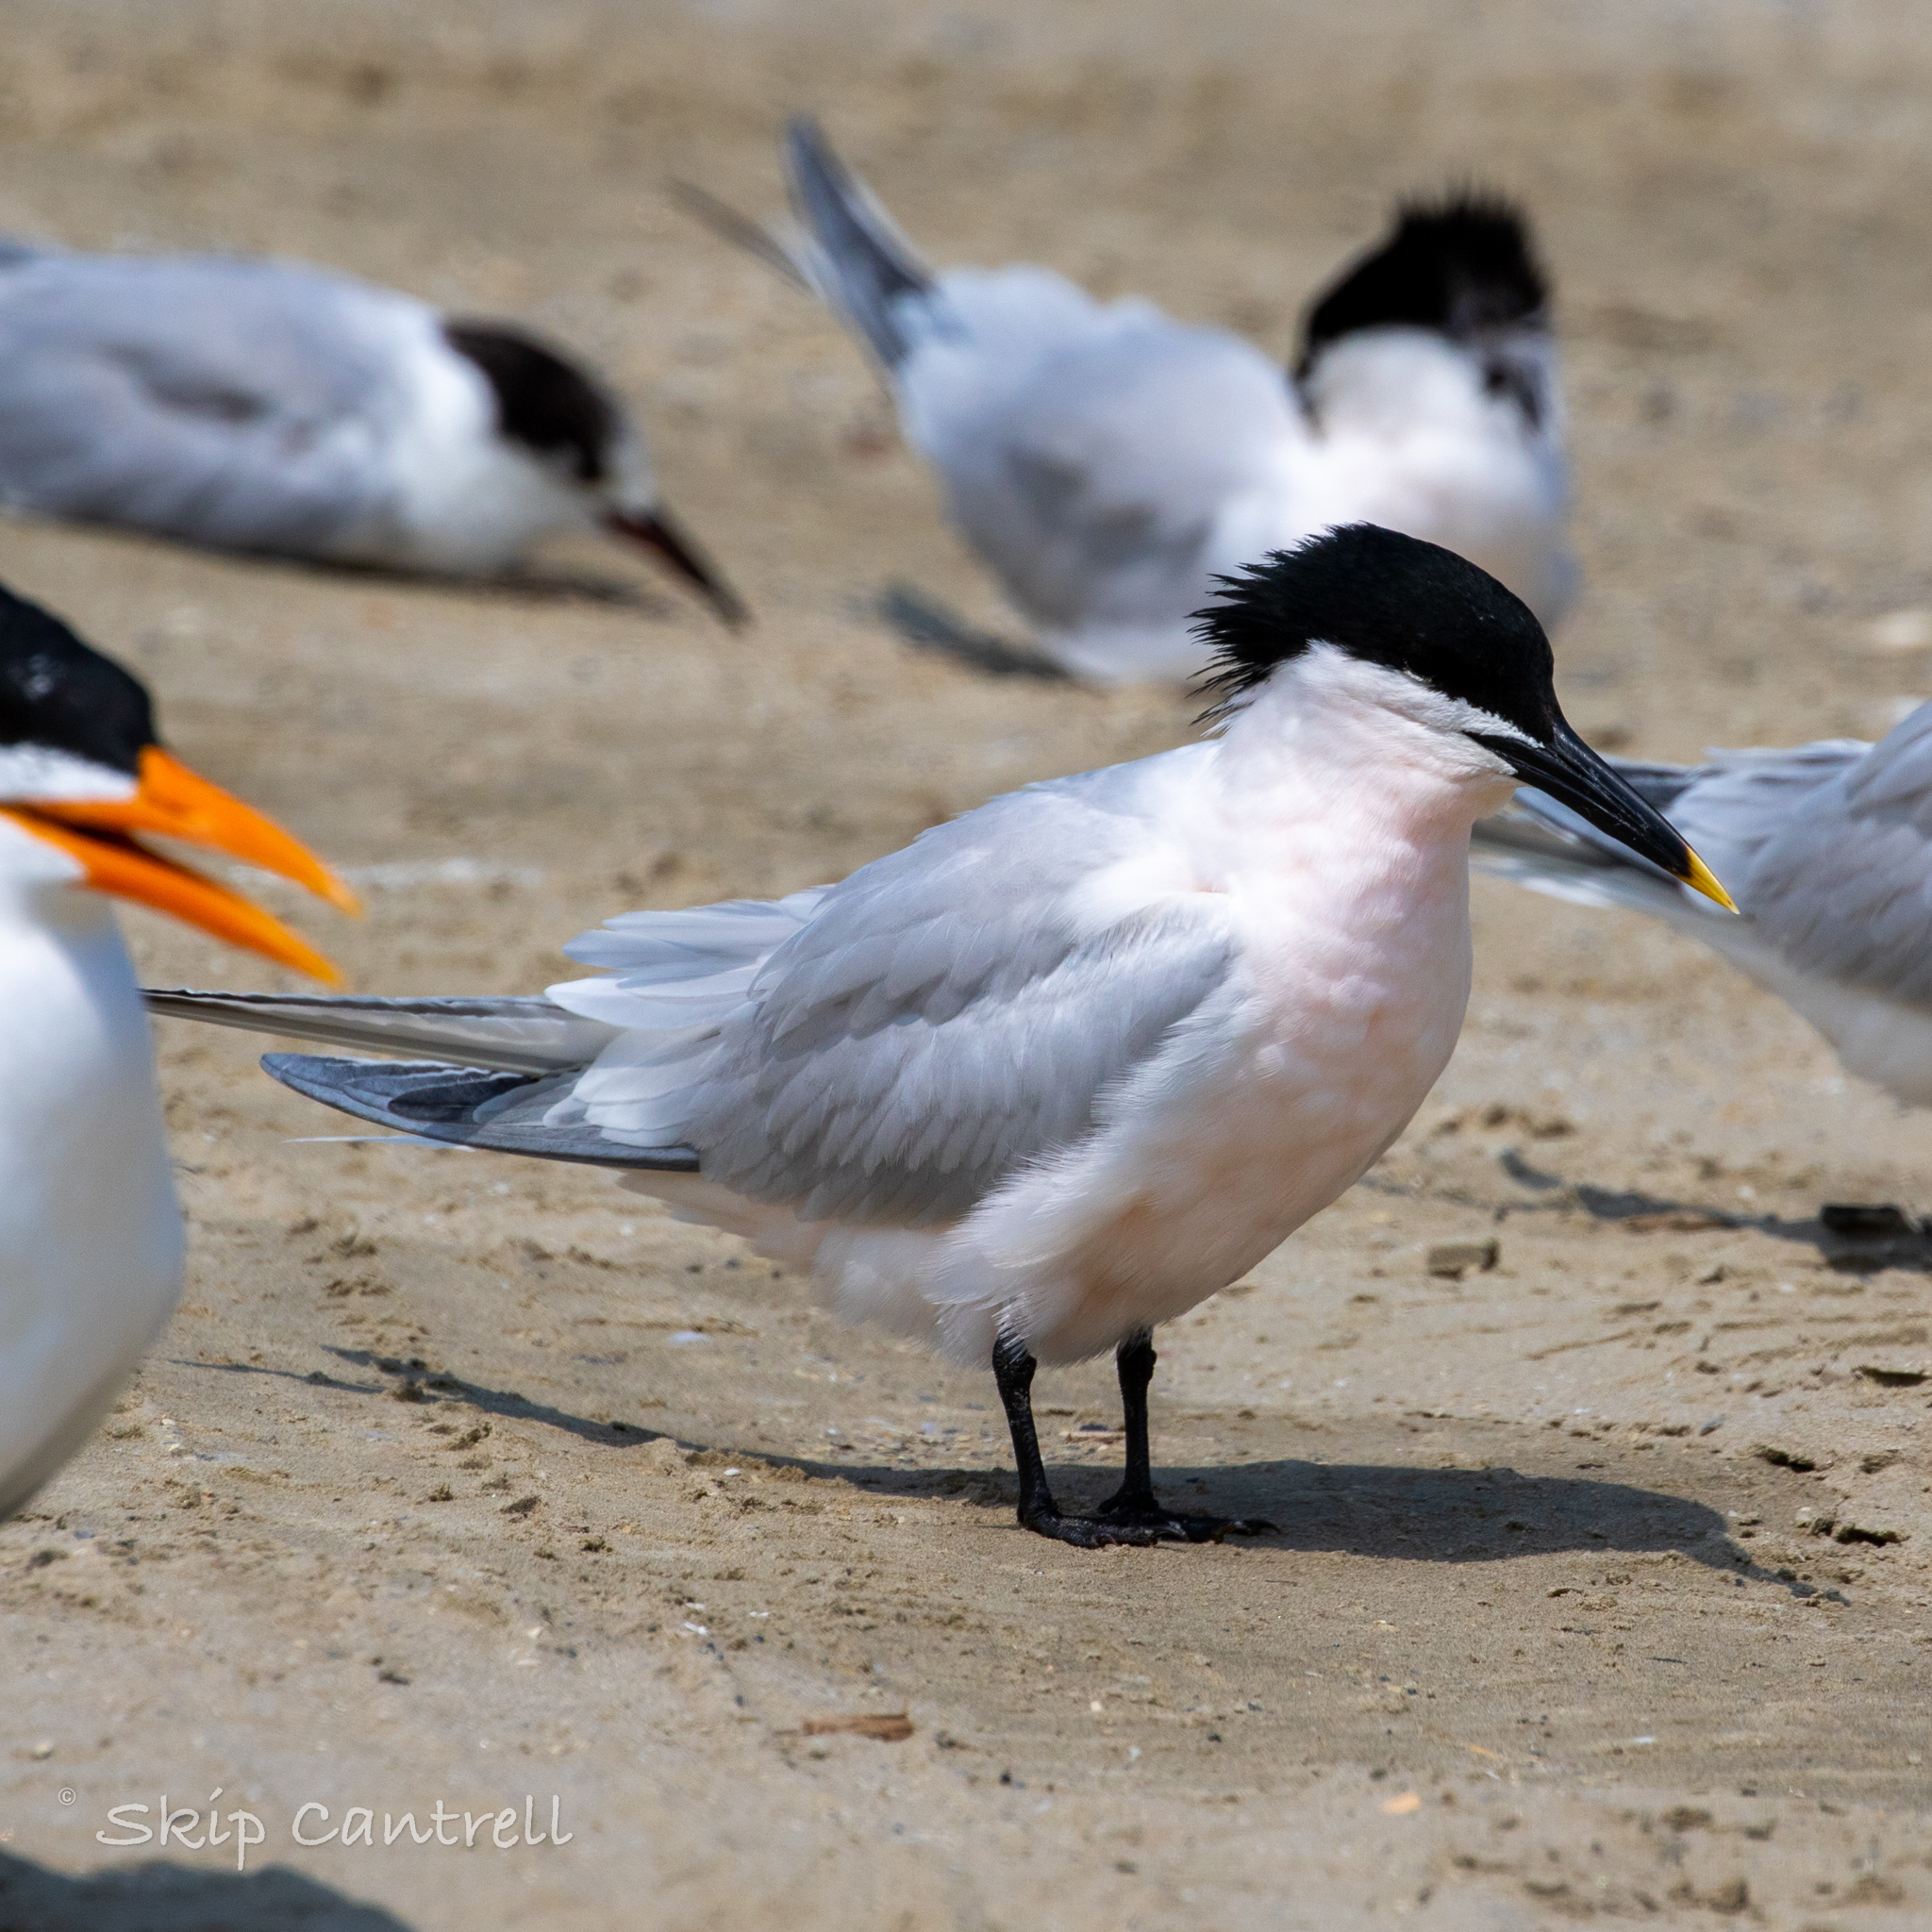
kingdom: Animalia
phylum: Chordata
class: Aves
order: Charadriiformes
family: Laridae
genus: Thalasseus
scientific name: Thalasseus sandvicensis
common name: Sandwich tern
